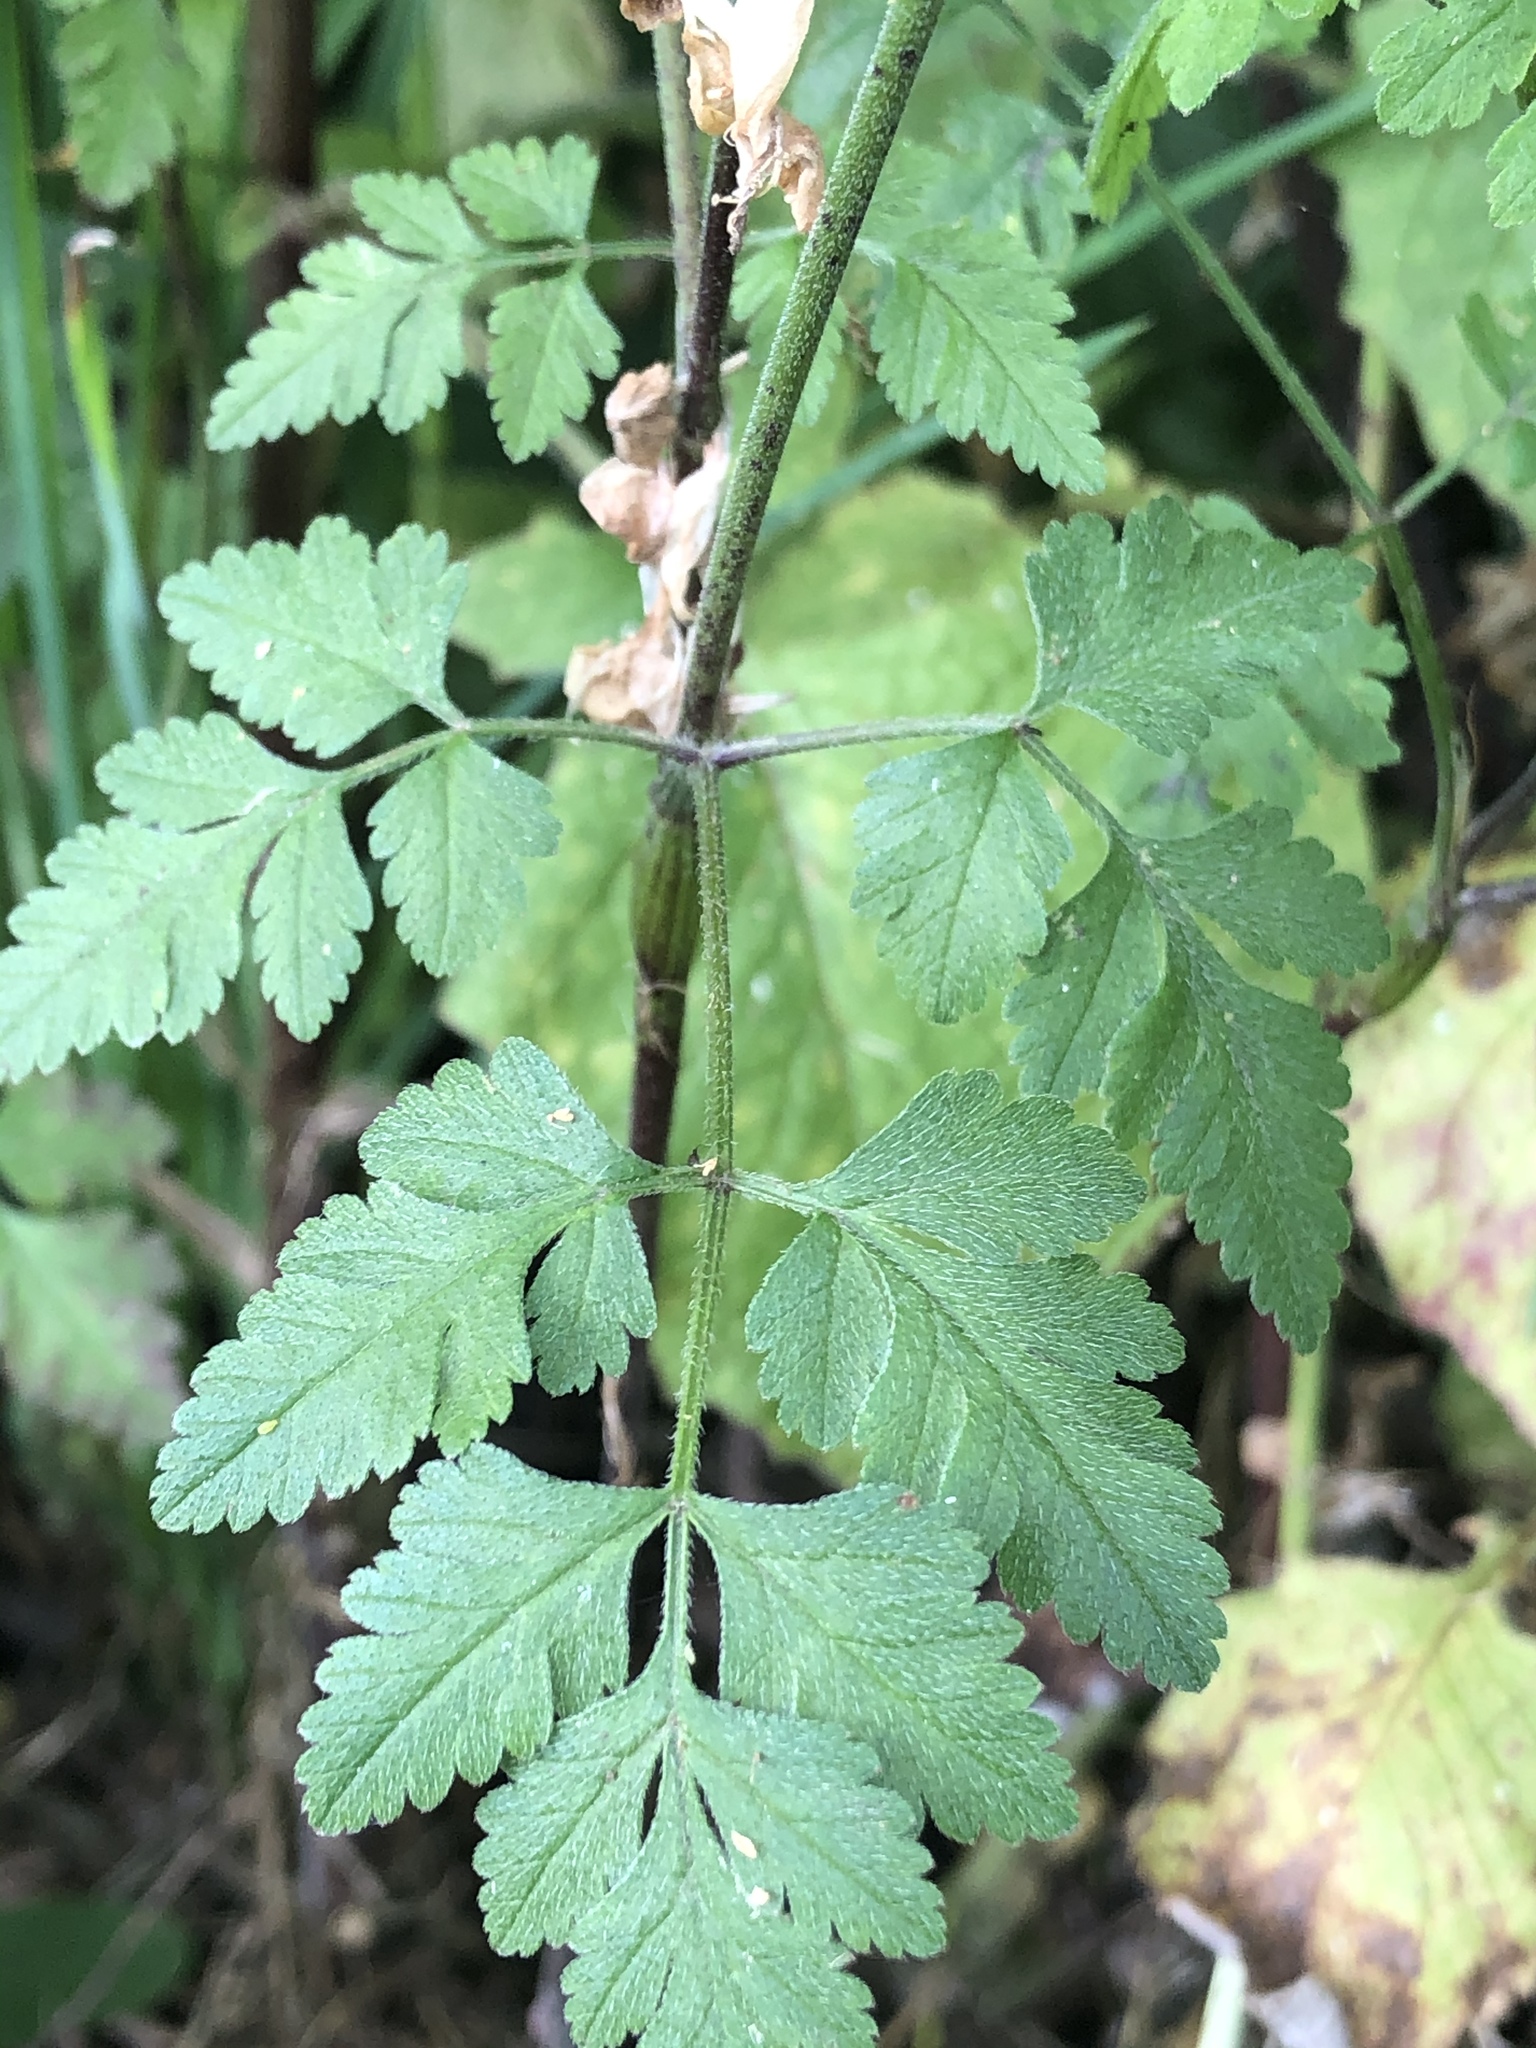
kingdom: Plantae
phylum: Tracheophyta
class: Magnoliopsida
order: Apiales
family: Apiaceae
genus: Chaerophyllum
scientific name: Chaerophyllum temulum
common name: Rough chervil
